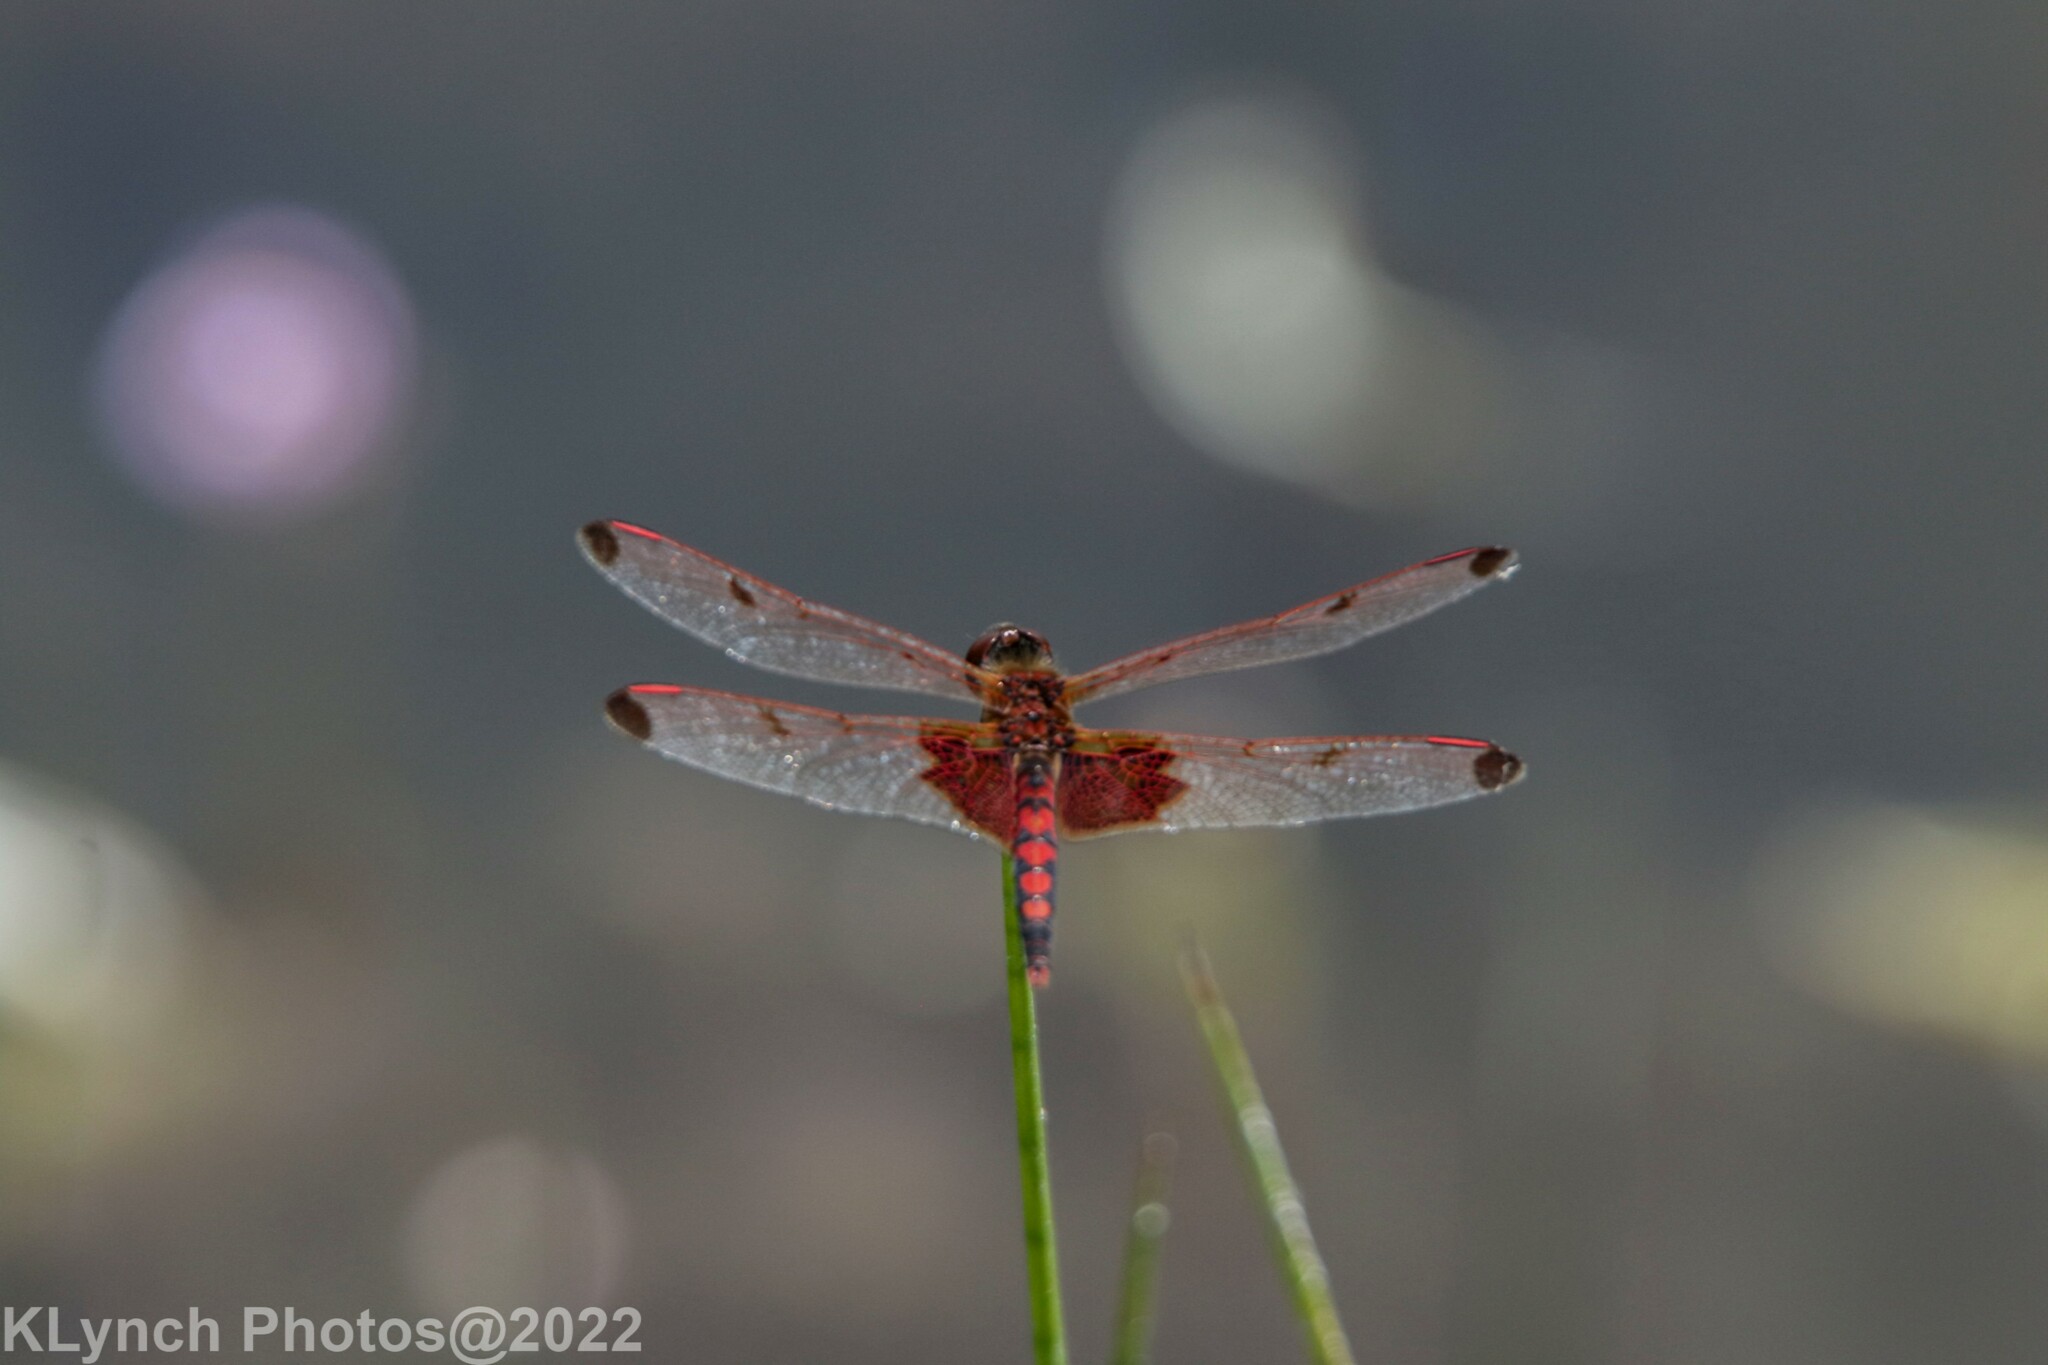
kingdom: Animalia
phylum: Arthropoda
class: Insecta
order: Odonata
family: Libellulidae
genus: Celithemis
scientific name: Celithemis elisa
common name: Calico pennant
